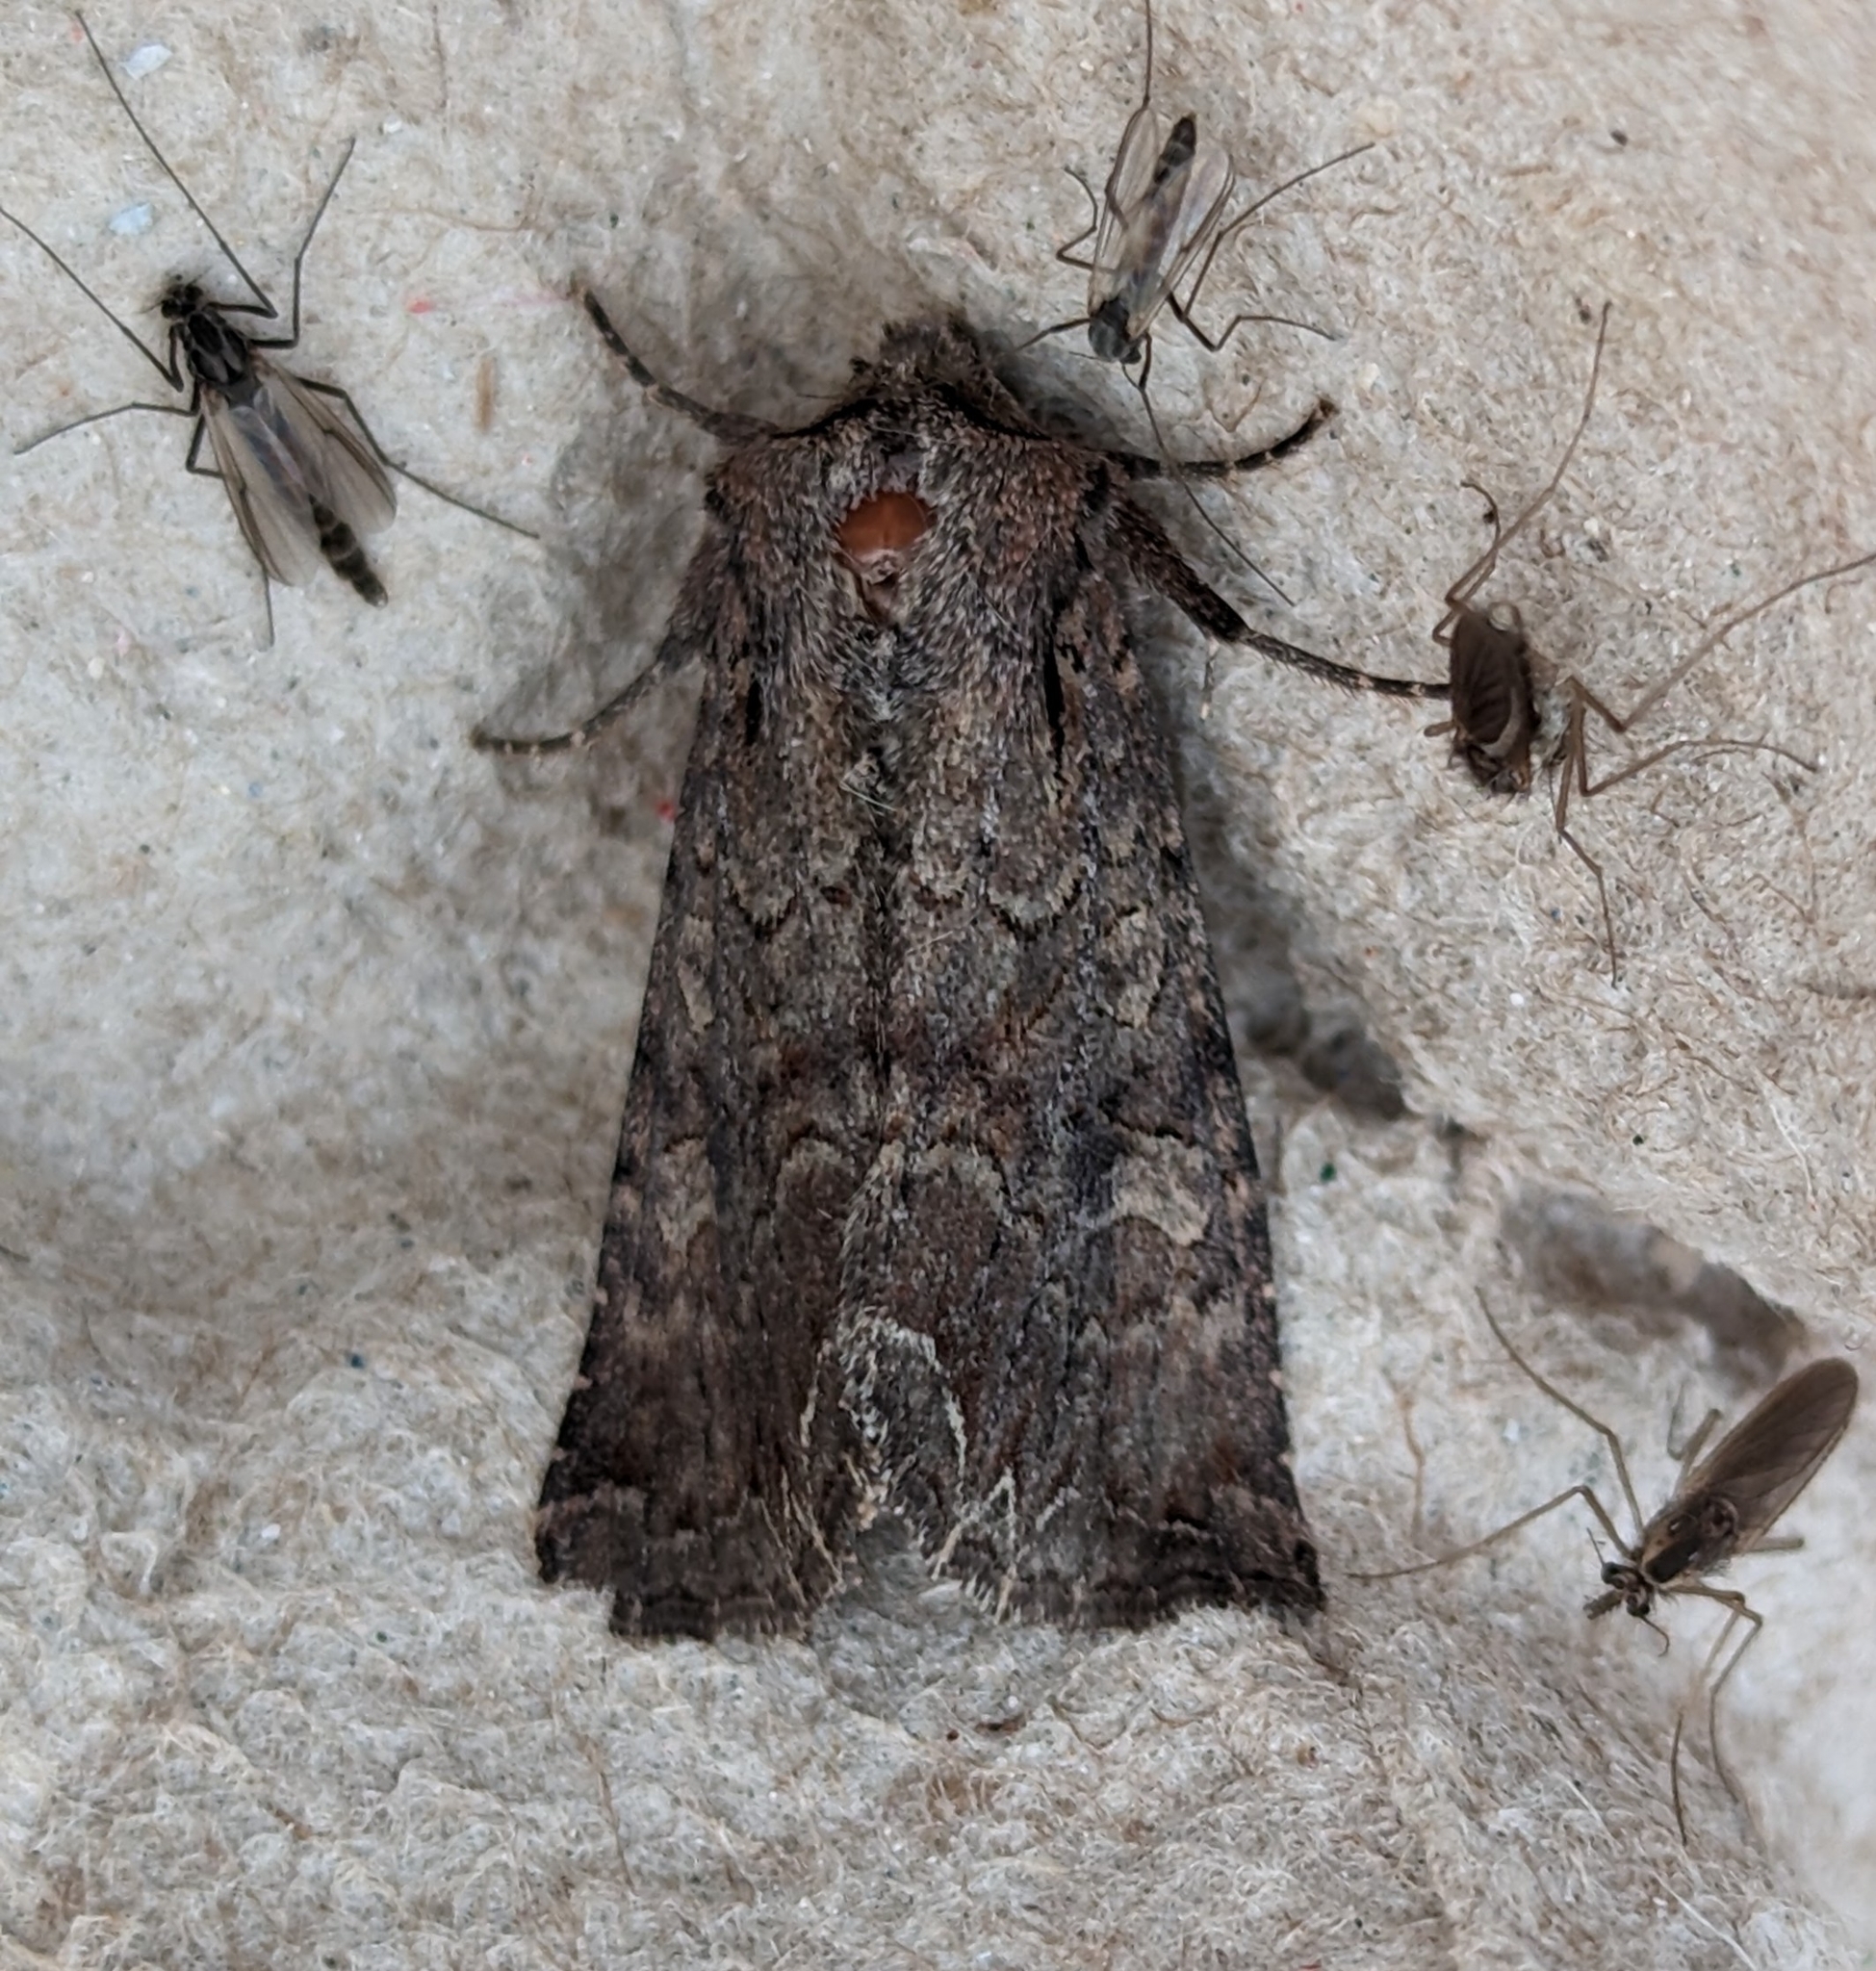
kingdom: Animalia
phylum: Arthropoda
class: Insecta
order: Lepidoptera
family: Noctuidae
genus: Lacanobia
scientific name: Lacanobia radix
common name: Garden arches moth
